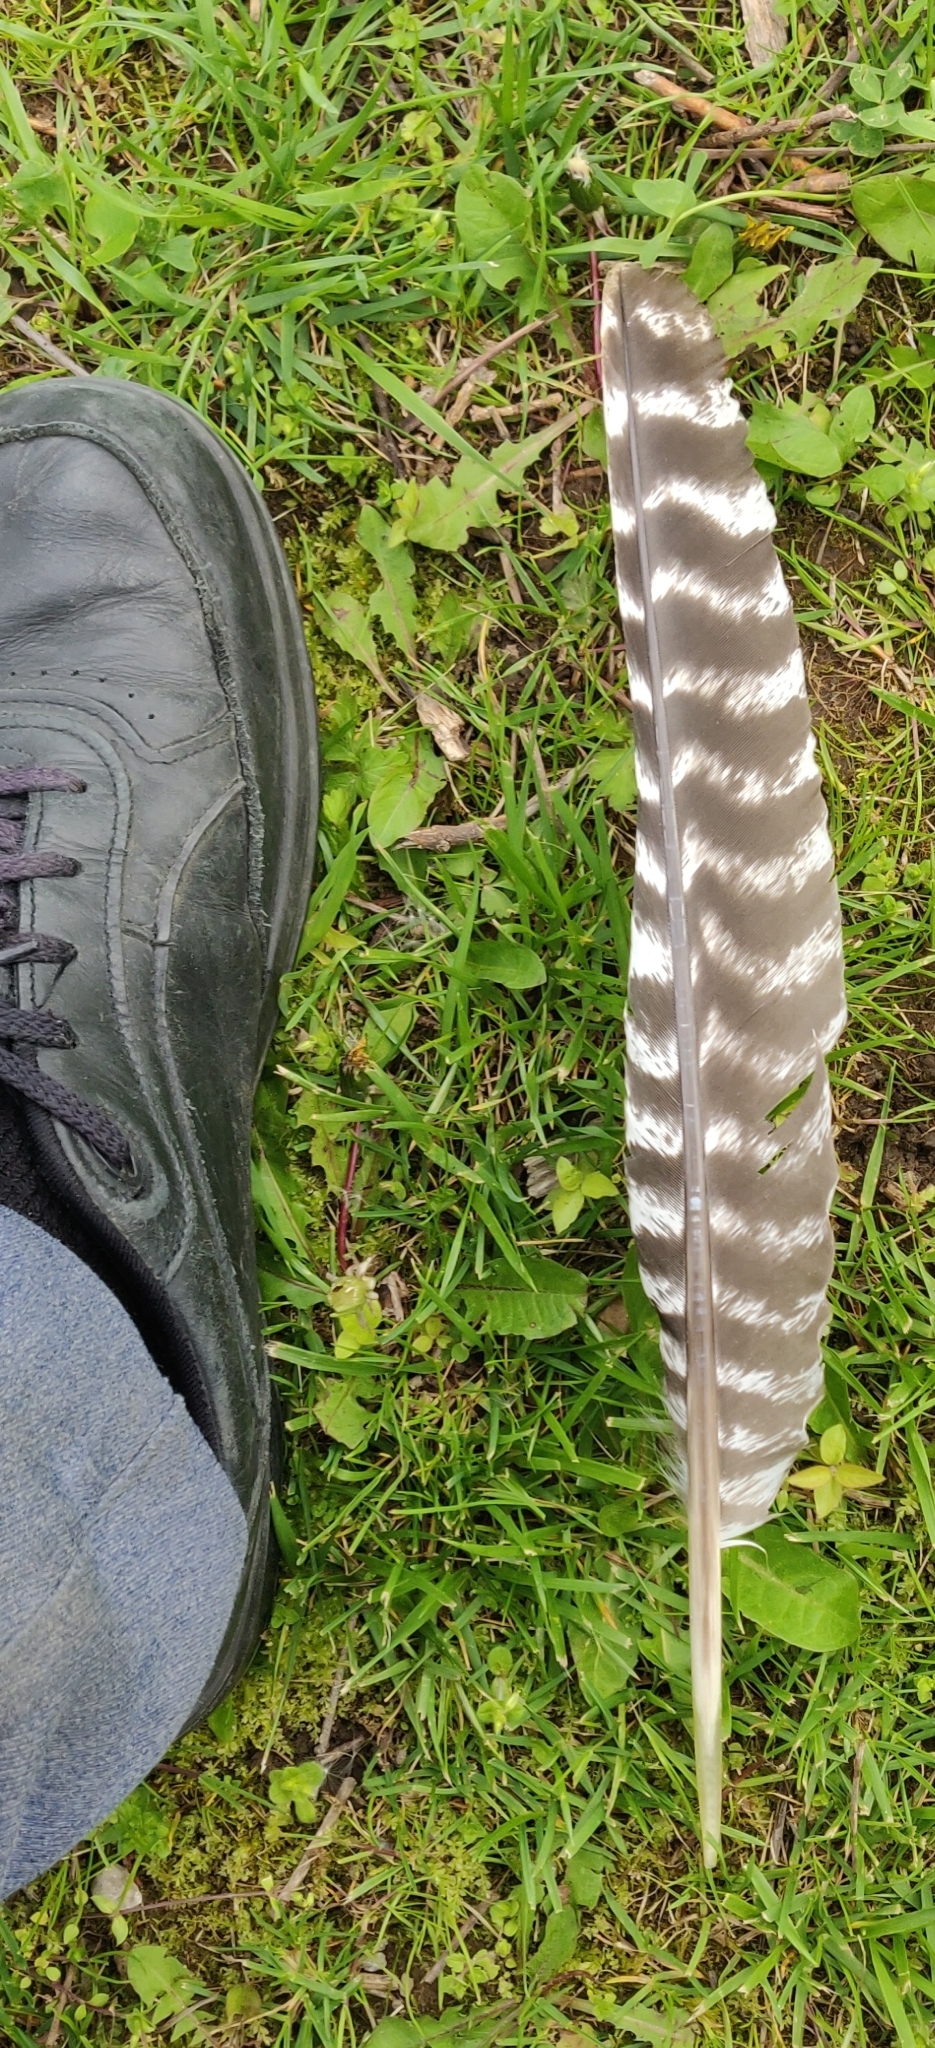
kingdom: Animalia
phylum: Chordata
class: Aves
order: Galliformes
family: Phasianidae
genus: Meleagris
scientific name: Meleagris gallopavo
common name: Wild turkey
